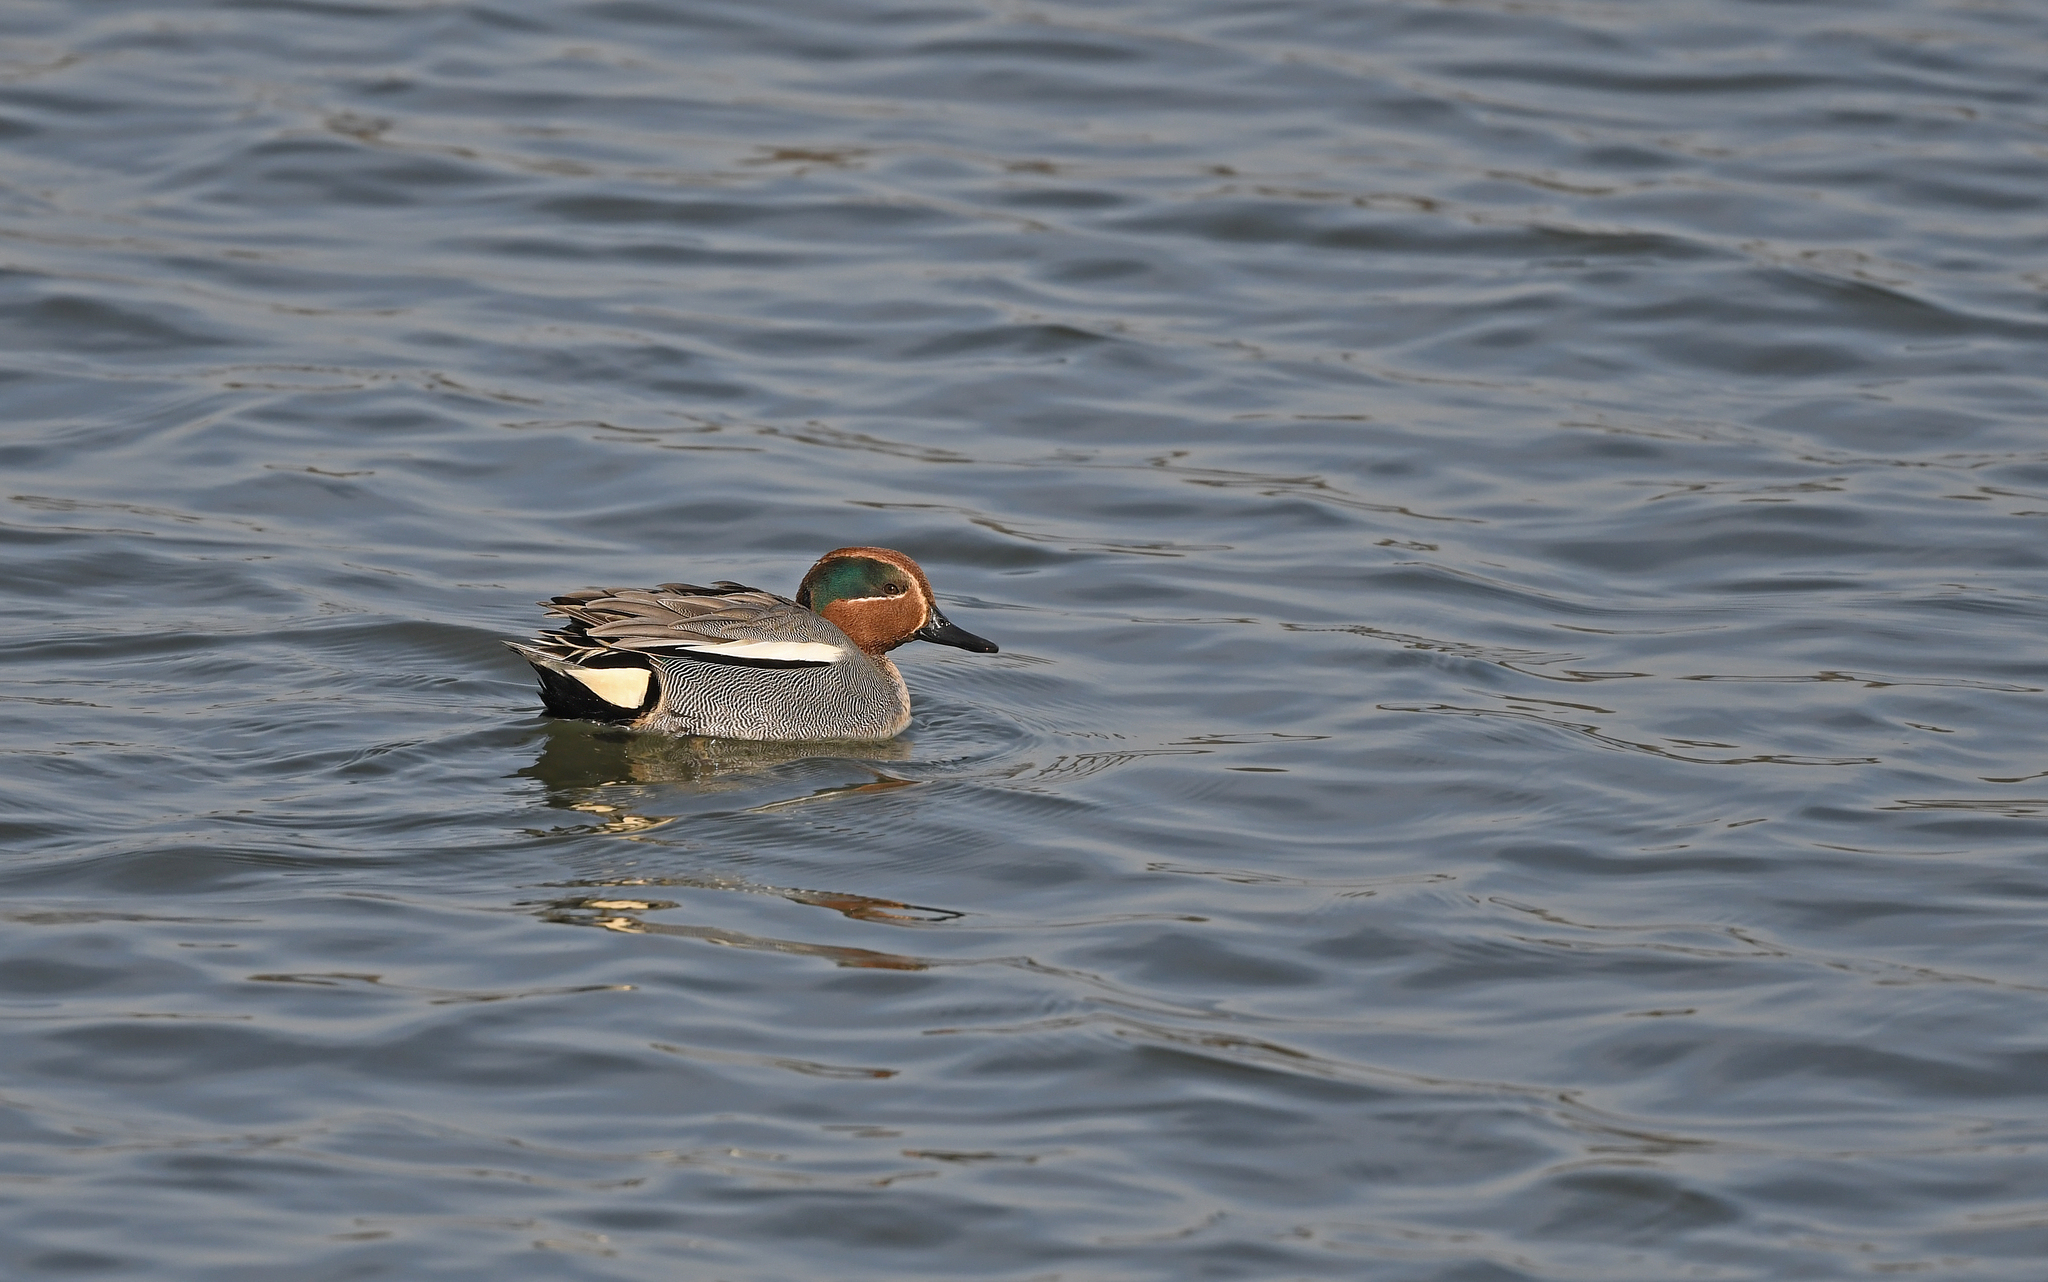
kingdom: Animalia
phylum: Chordata
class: Aves
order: Anseriformes
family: Anatidae
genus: Anas
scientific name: Anas crecca
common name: Eurasian teal
